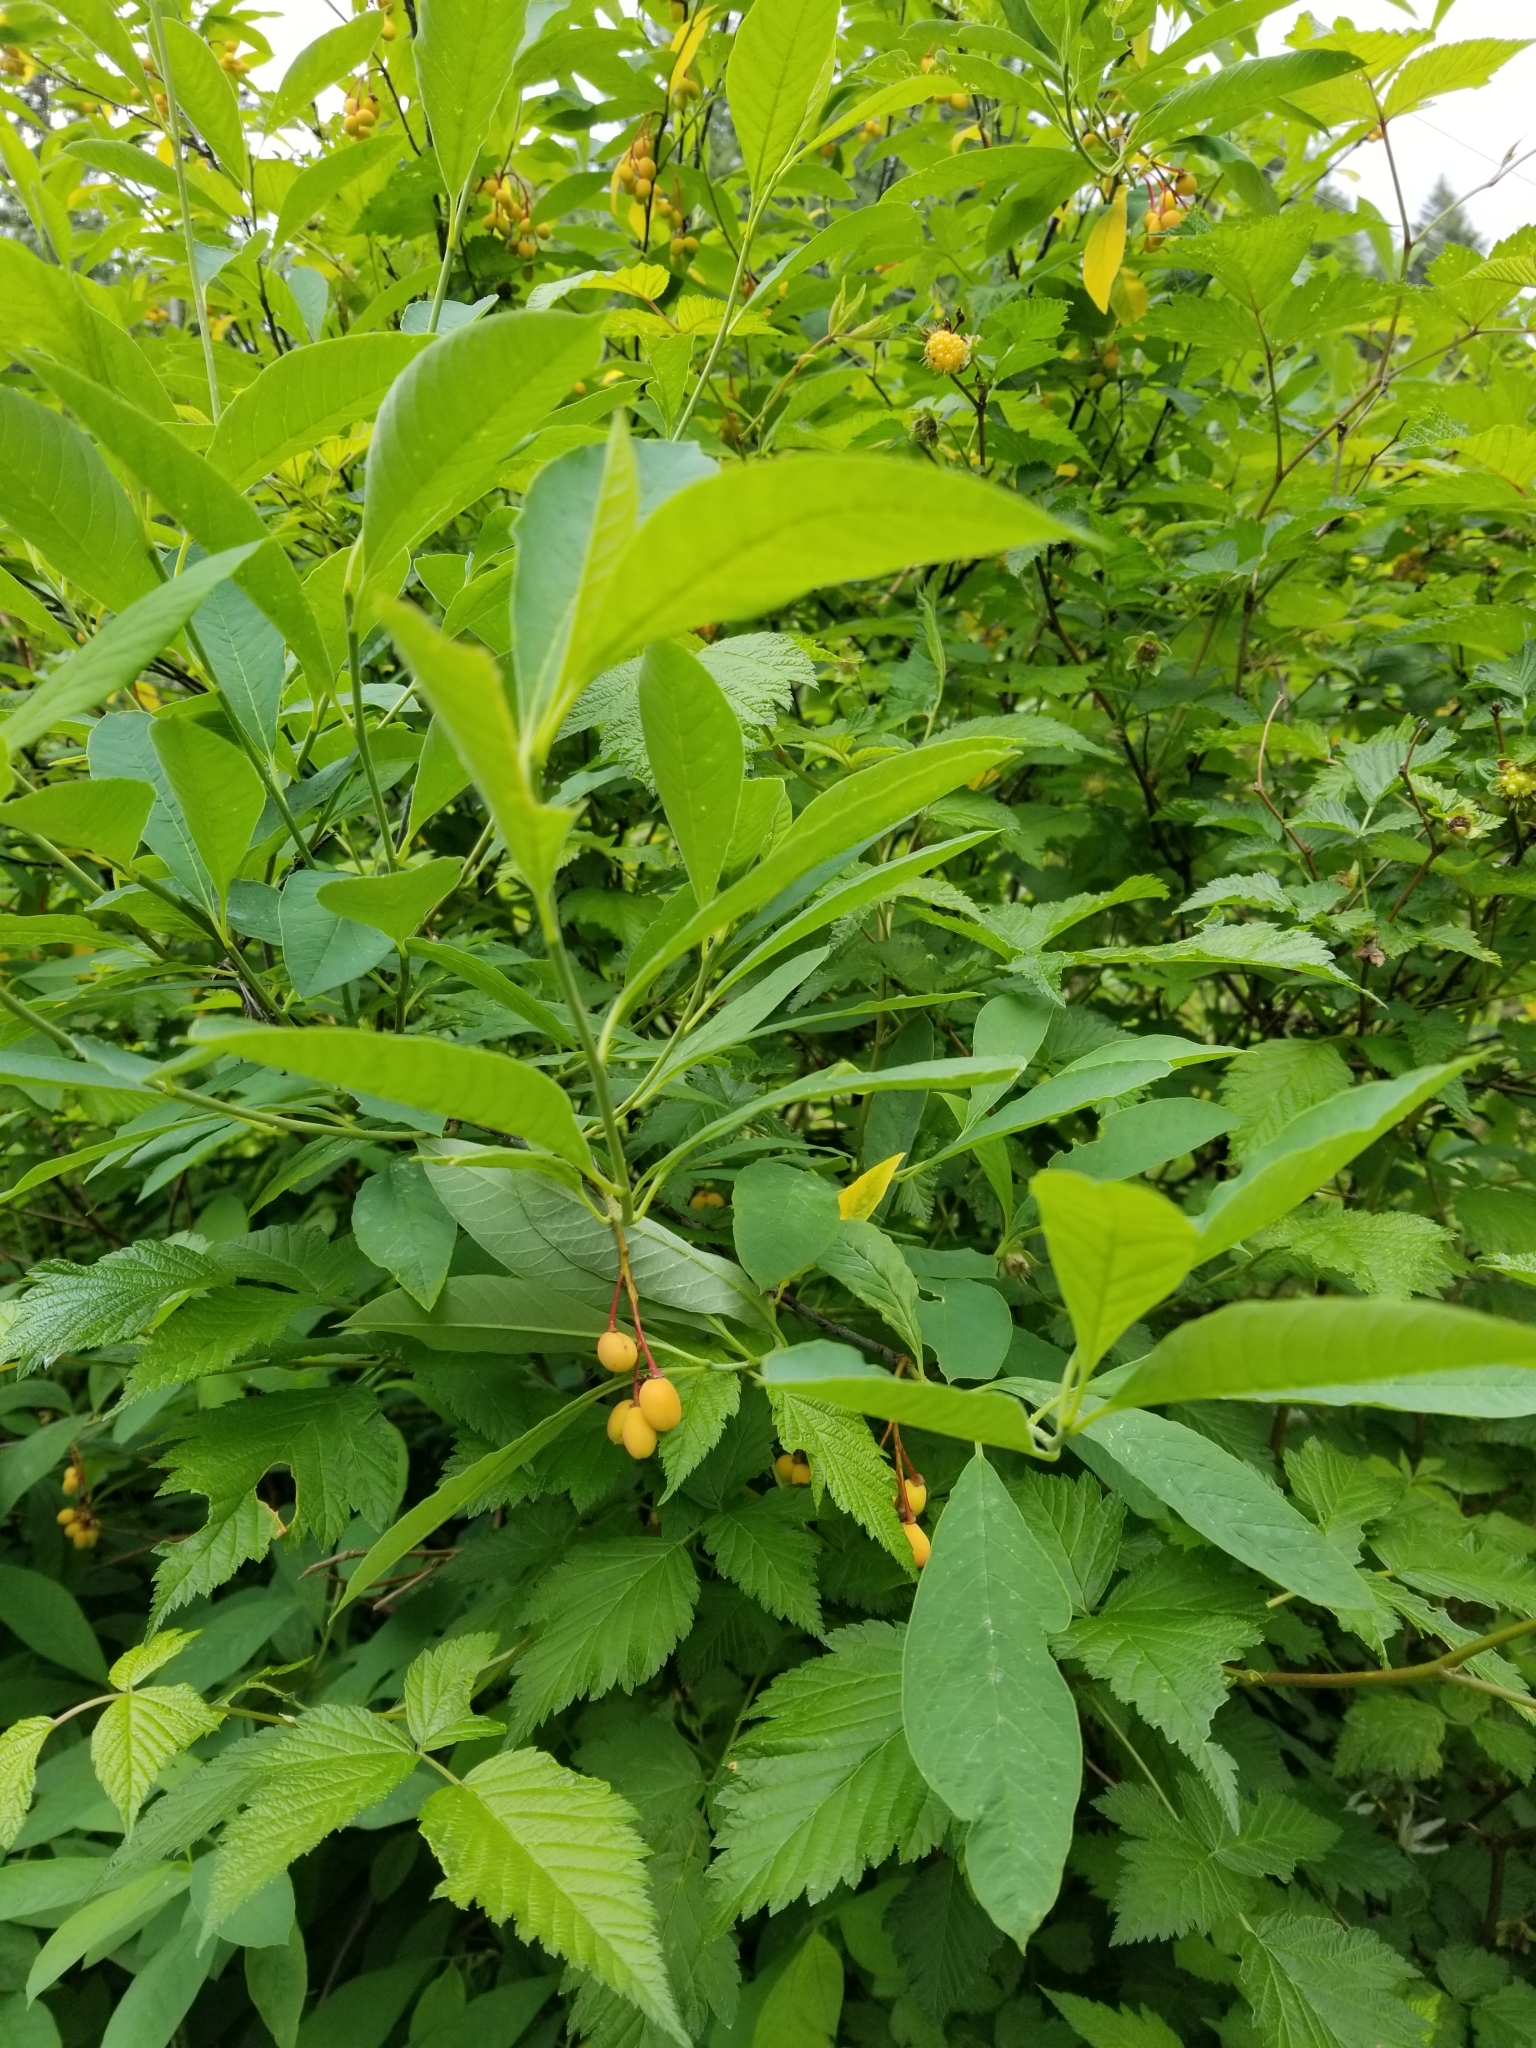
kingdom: Plantae
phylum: Tracheophyta
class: Magnoliopsida
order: Rosales
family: Rosaceae
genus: Oemleria
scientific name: Oemleria cerasiformis
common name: Osoberry
